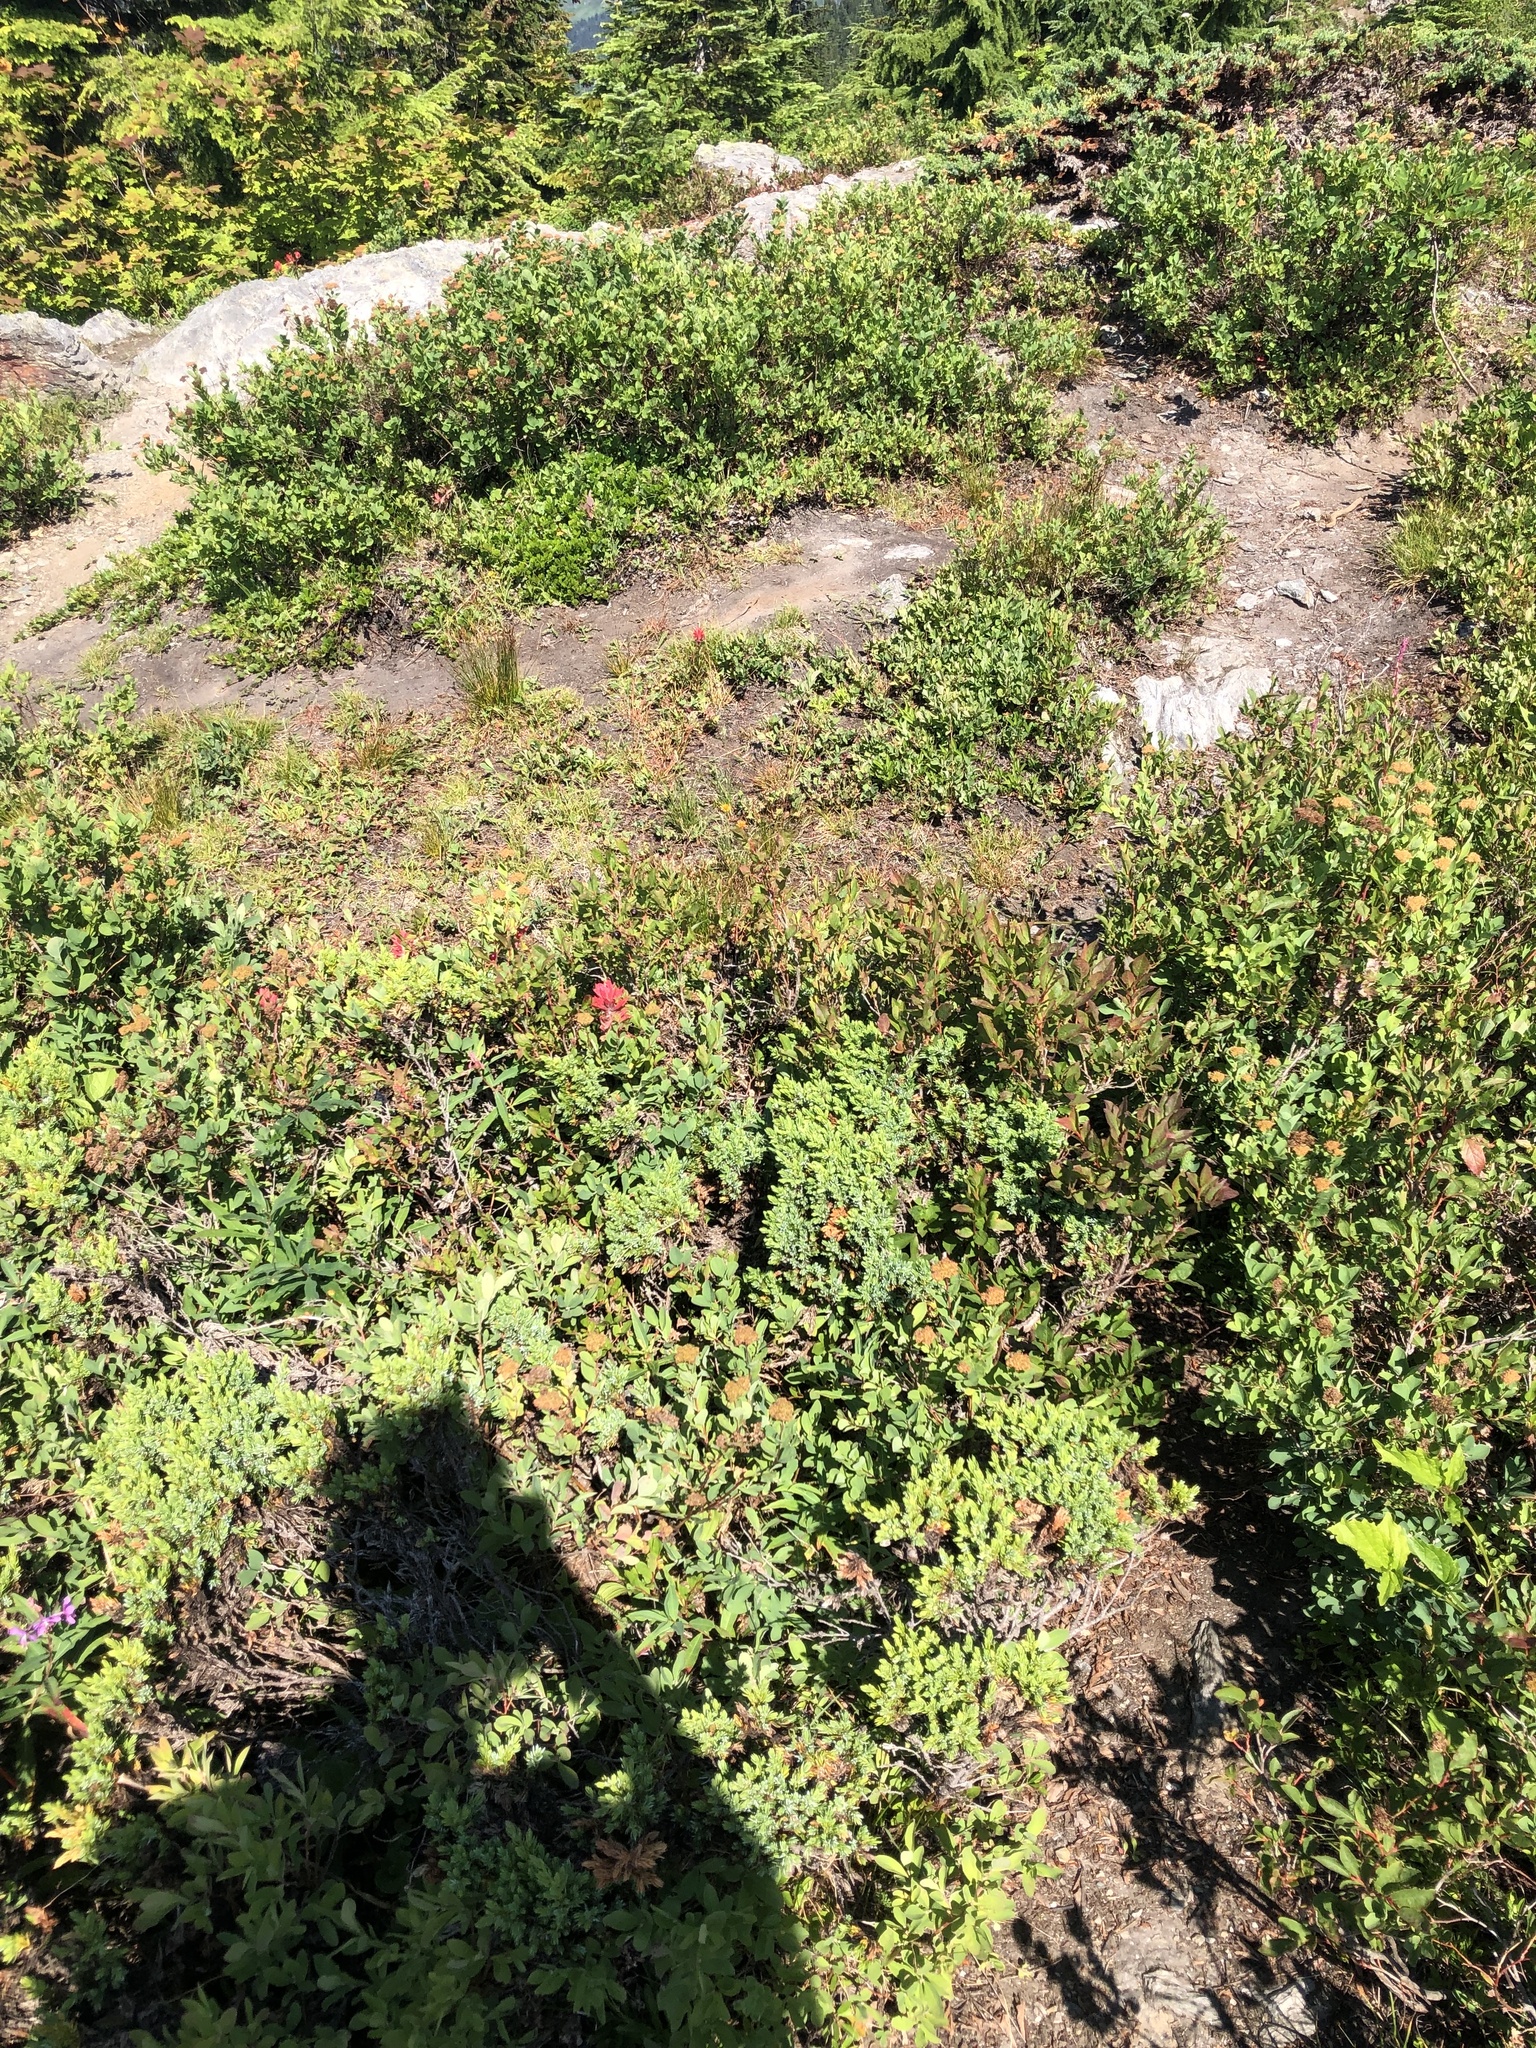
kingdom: Plantae
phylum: Tracheophyta
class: Pinopsida
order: Pinales
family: Cupressaceae
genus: Juniperus
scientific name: Juniperus communis
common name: Common juniper
